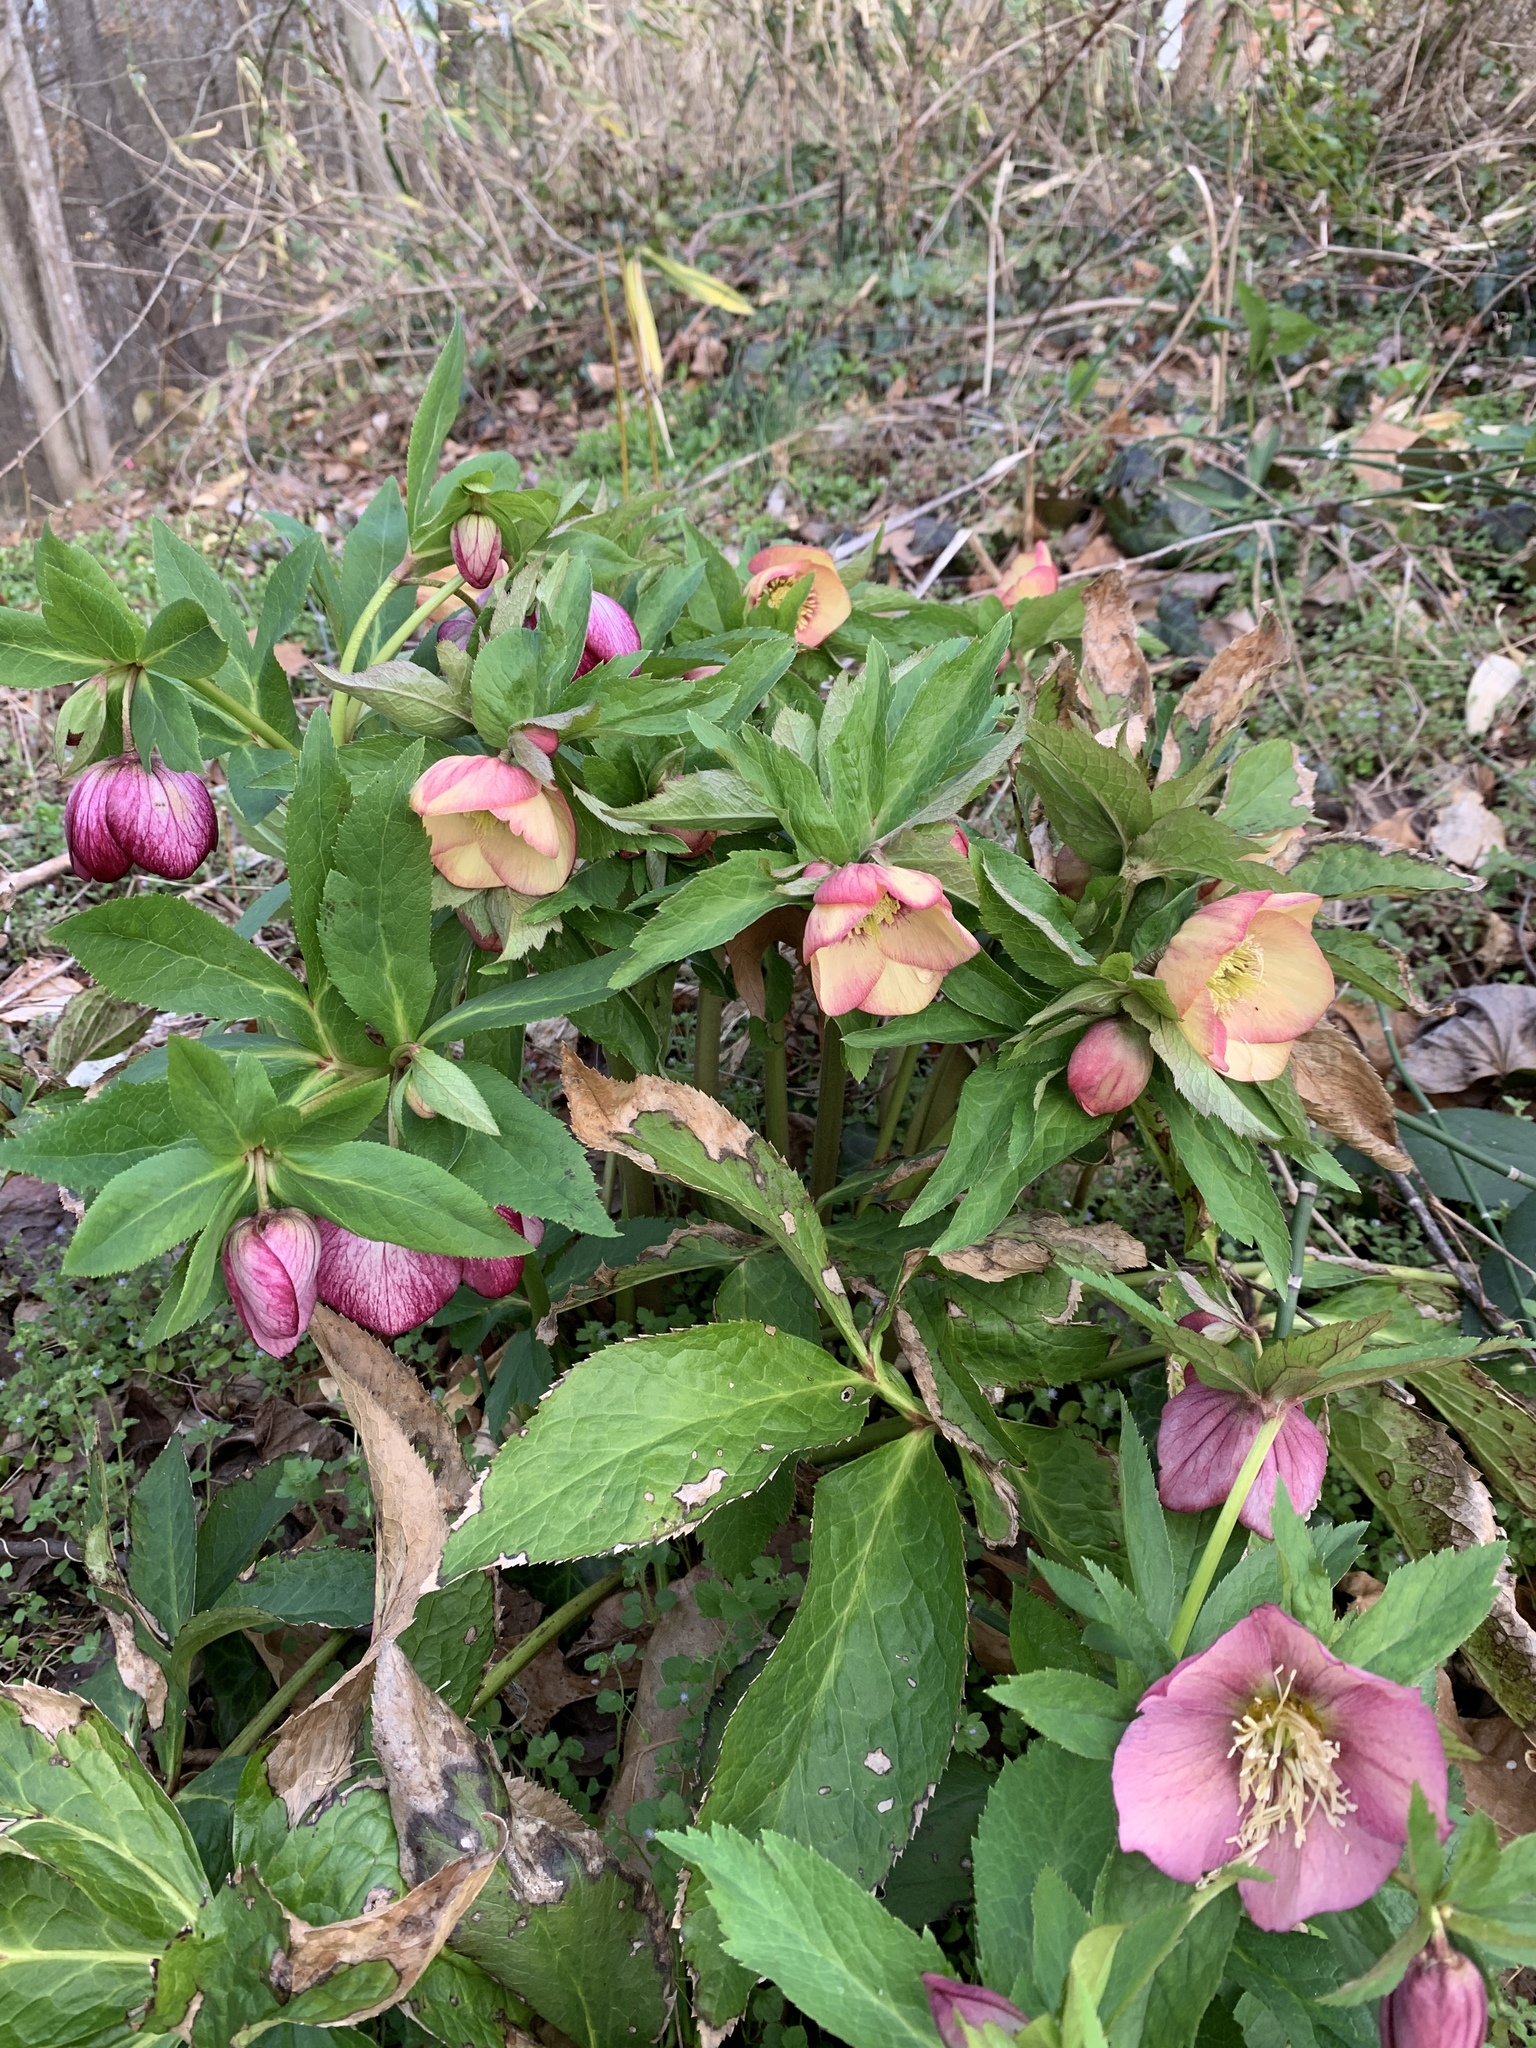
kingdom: Plantae
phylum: Tracheophyta
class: Magnoliopsida
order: Ranunculales
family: Ranunculaceae
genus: Helleborus
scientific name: Helleborus orientalis
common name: Lenten-rose
